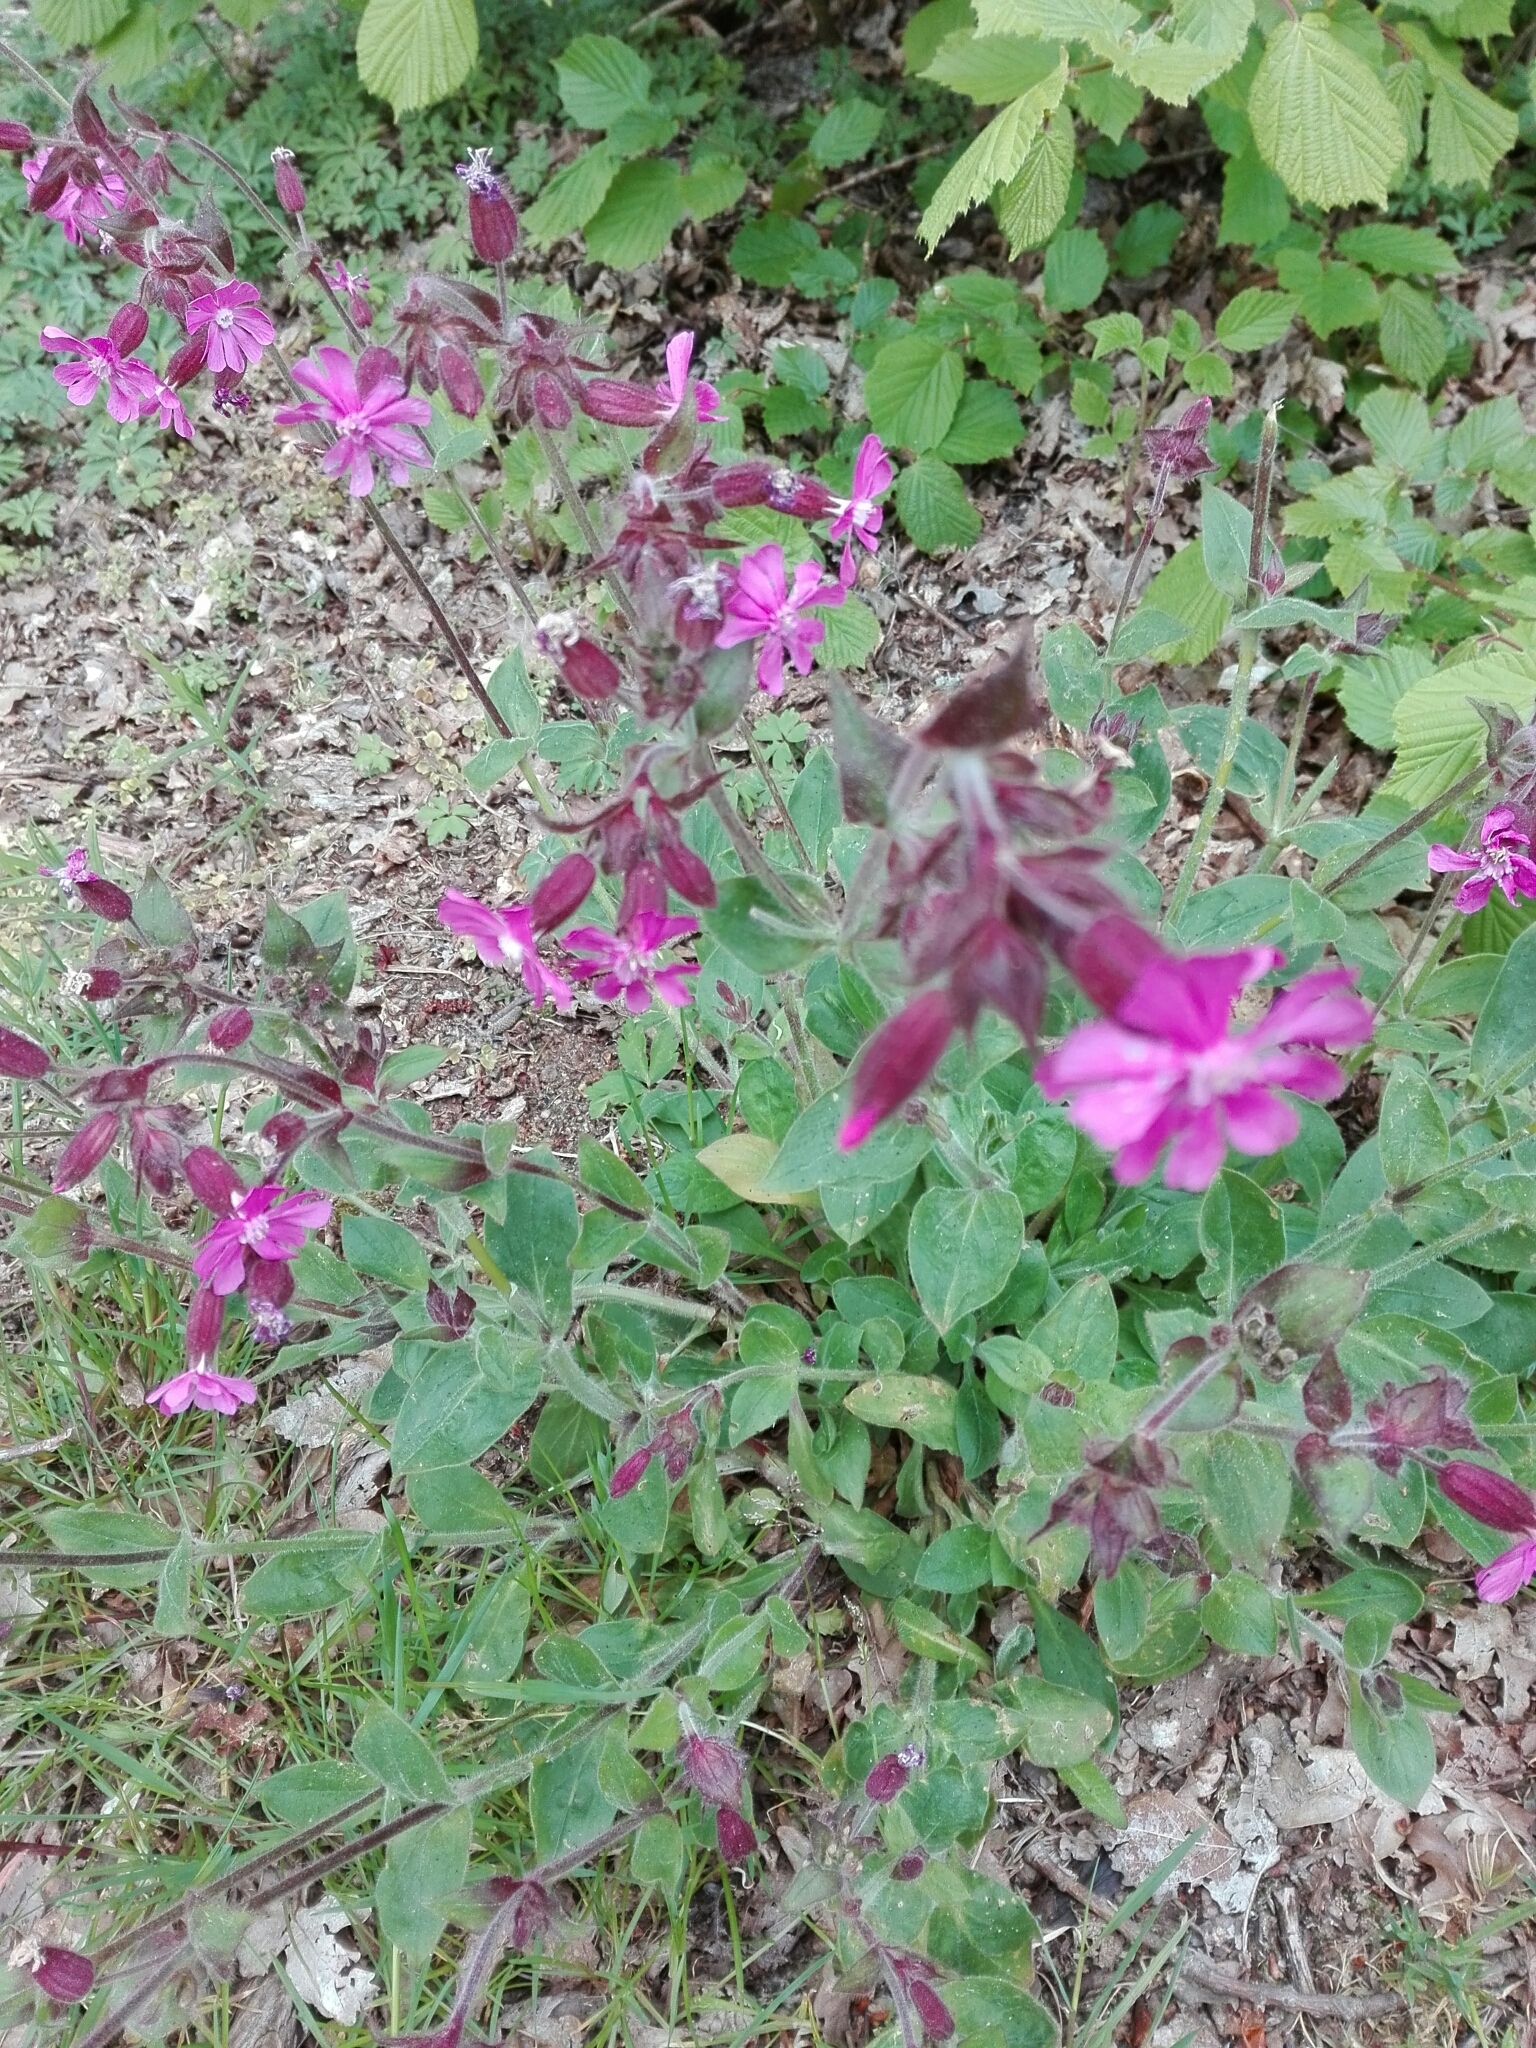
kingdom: Plantae
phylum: Tracheophyta
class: Magnoliopsida
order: Caryophyllales
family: Caryophyllaceae
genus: Silene
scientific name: Silene dioica
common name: Red campion
